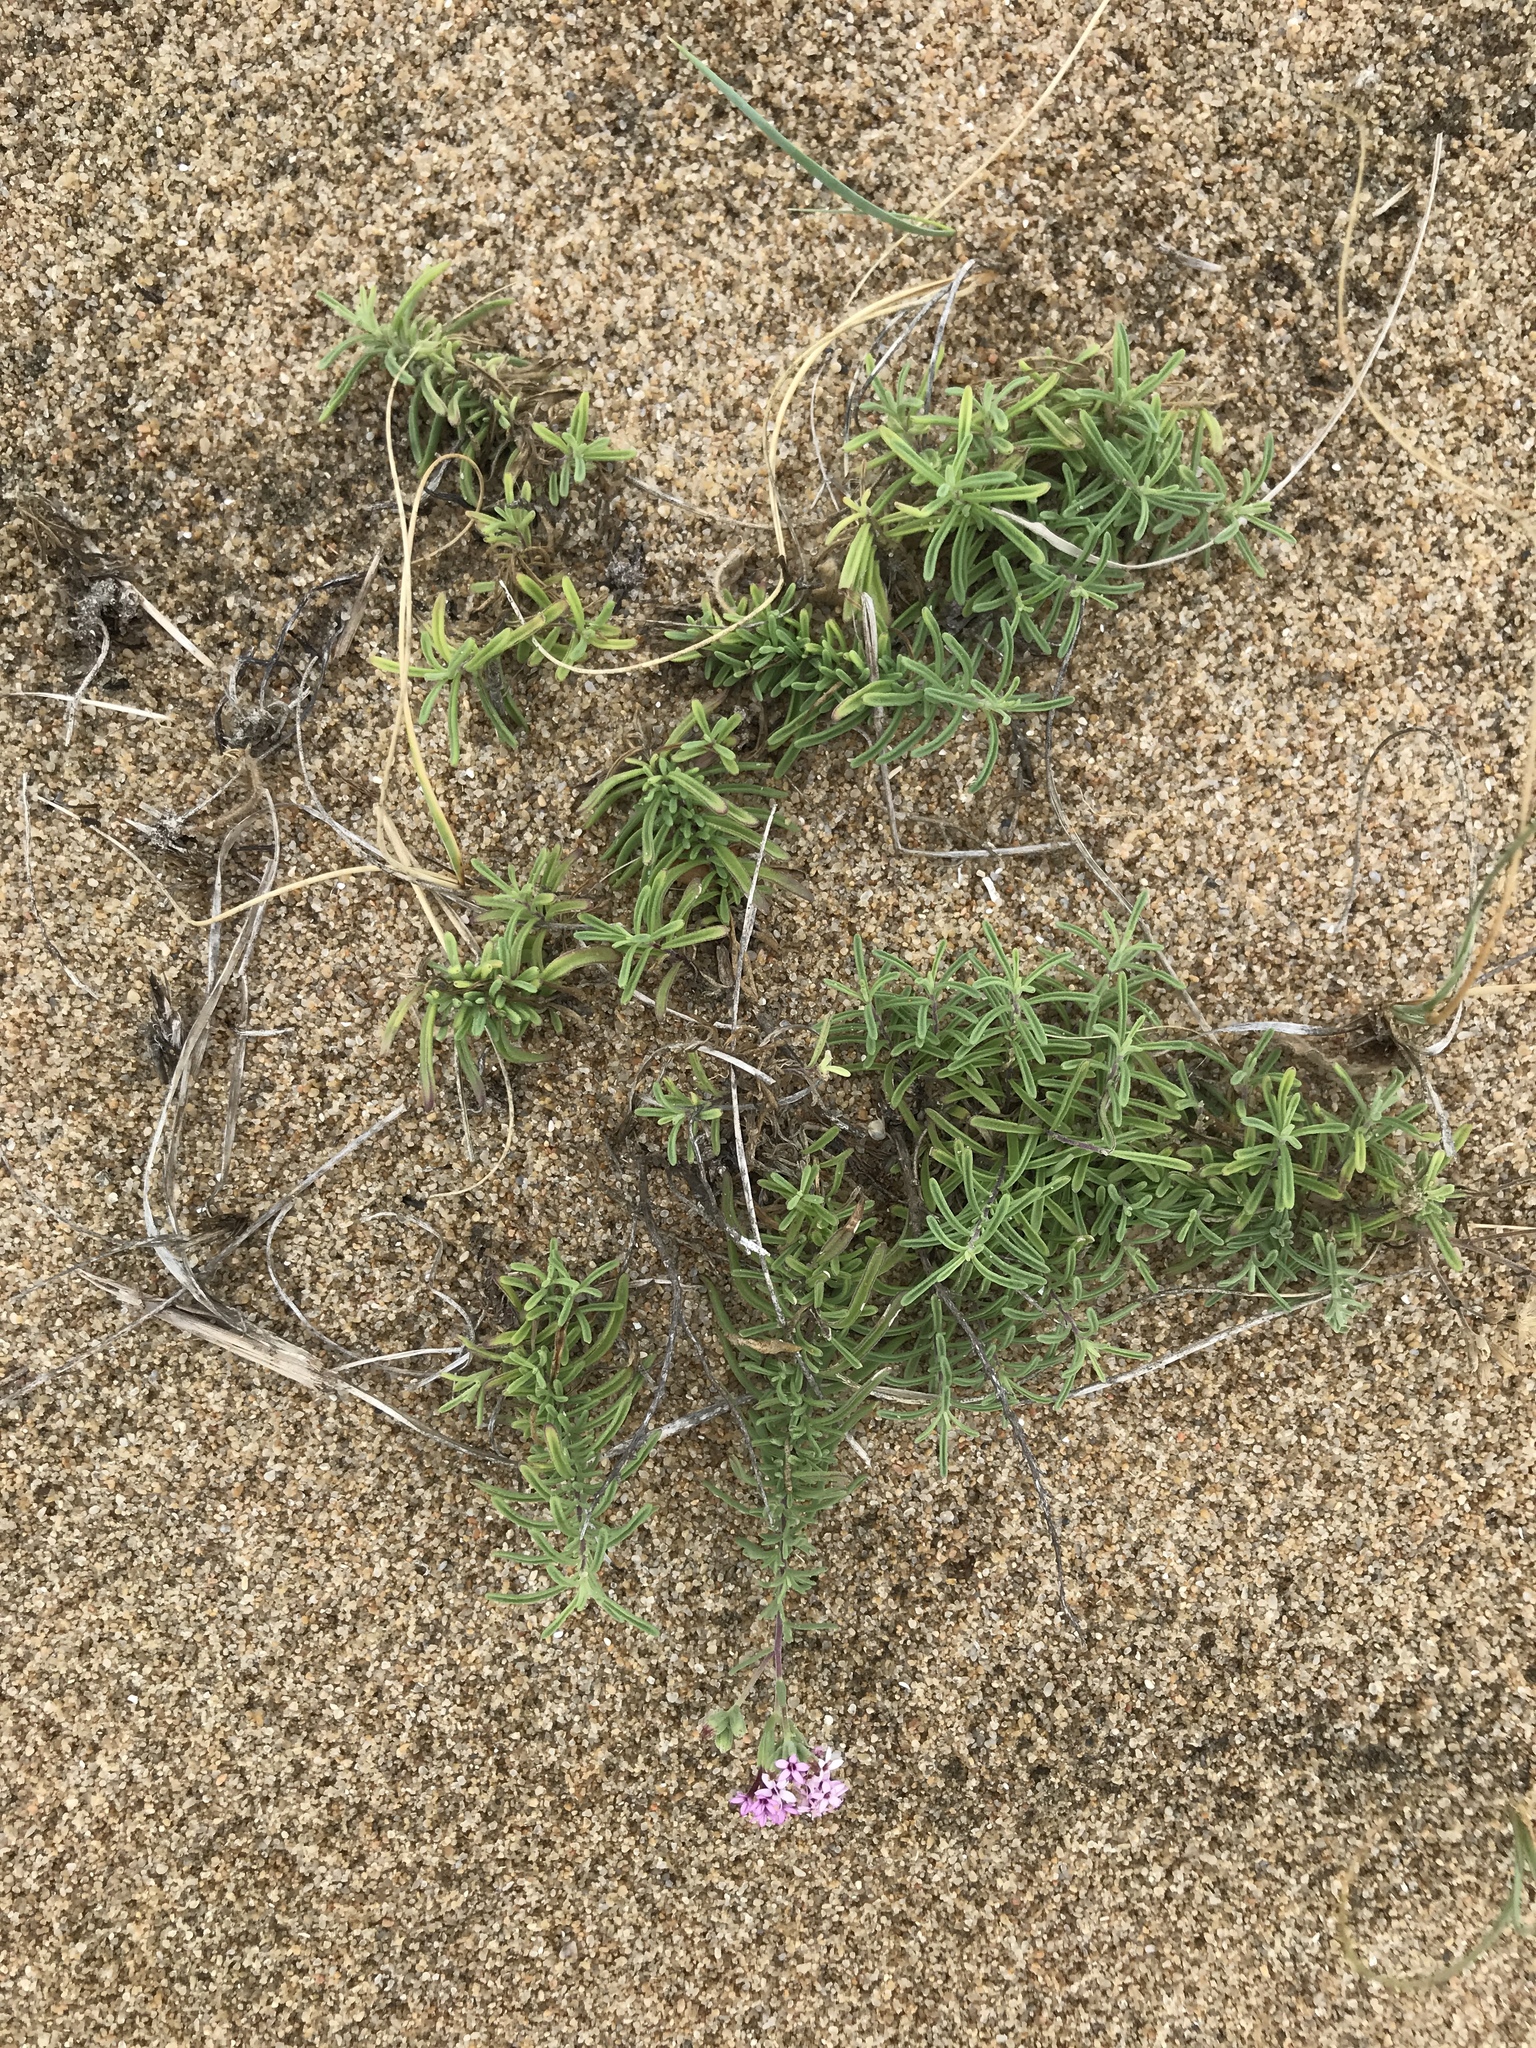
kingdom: Plantae
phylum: Tracheophyta
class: Magnoliopsida
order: Asterales
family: Asteraceae
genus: Stevia
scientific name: Stevia satureifolia
